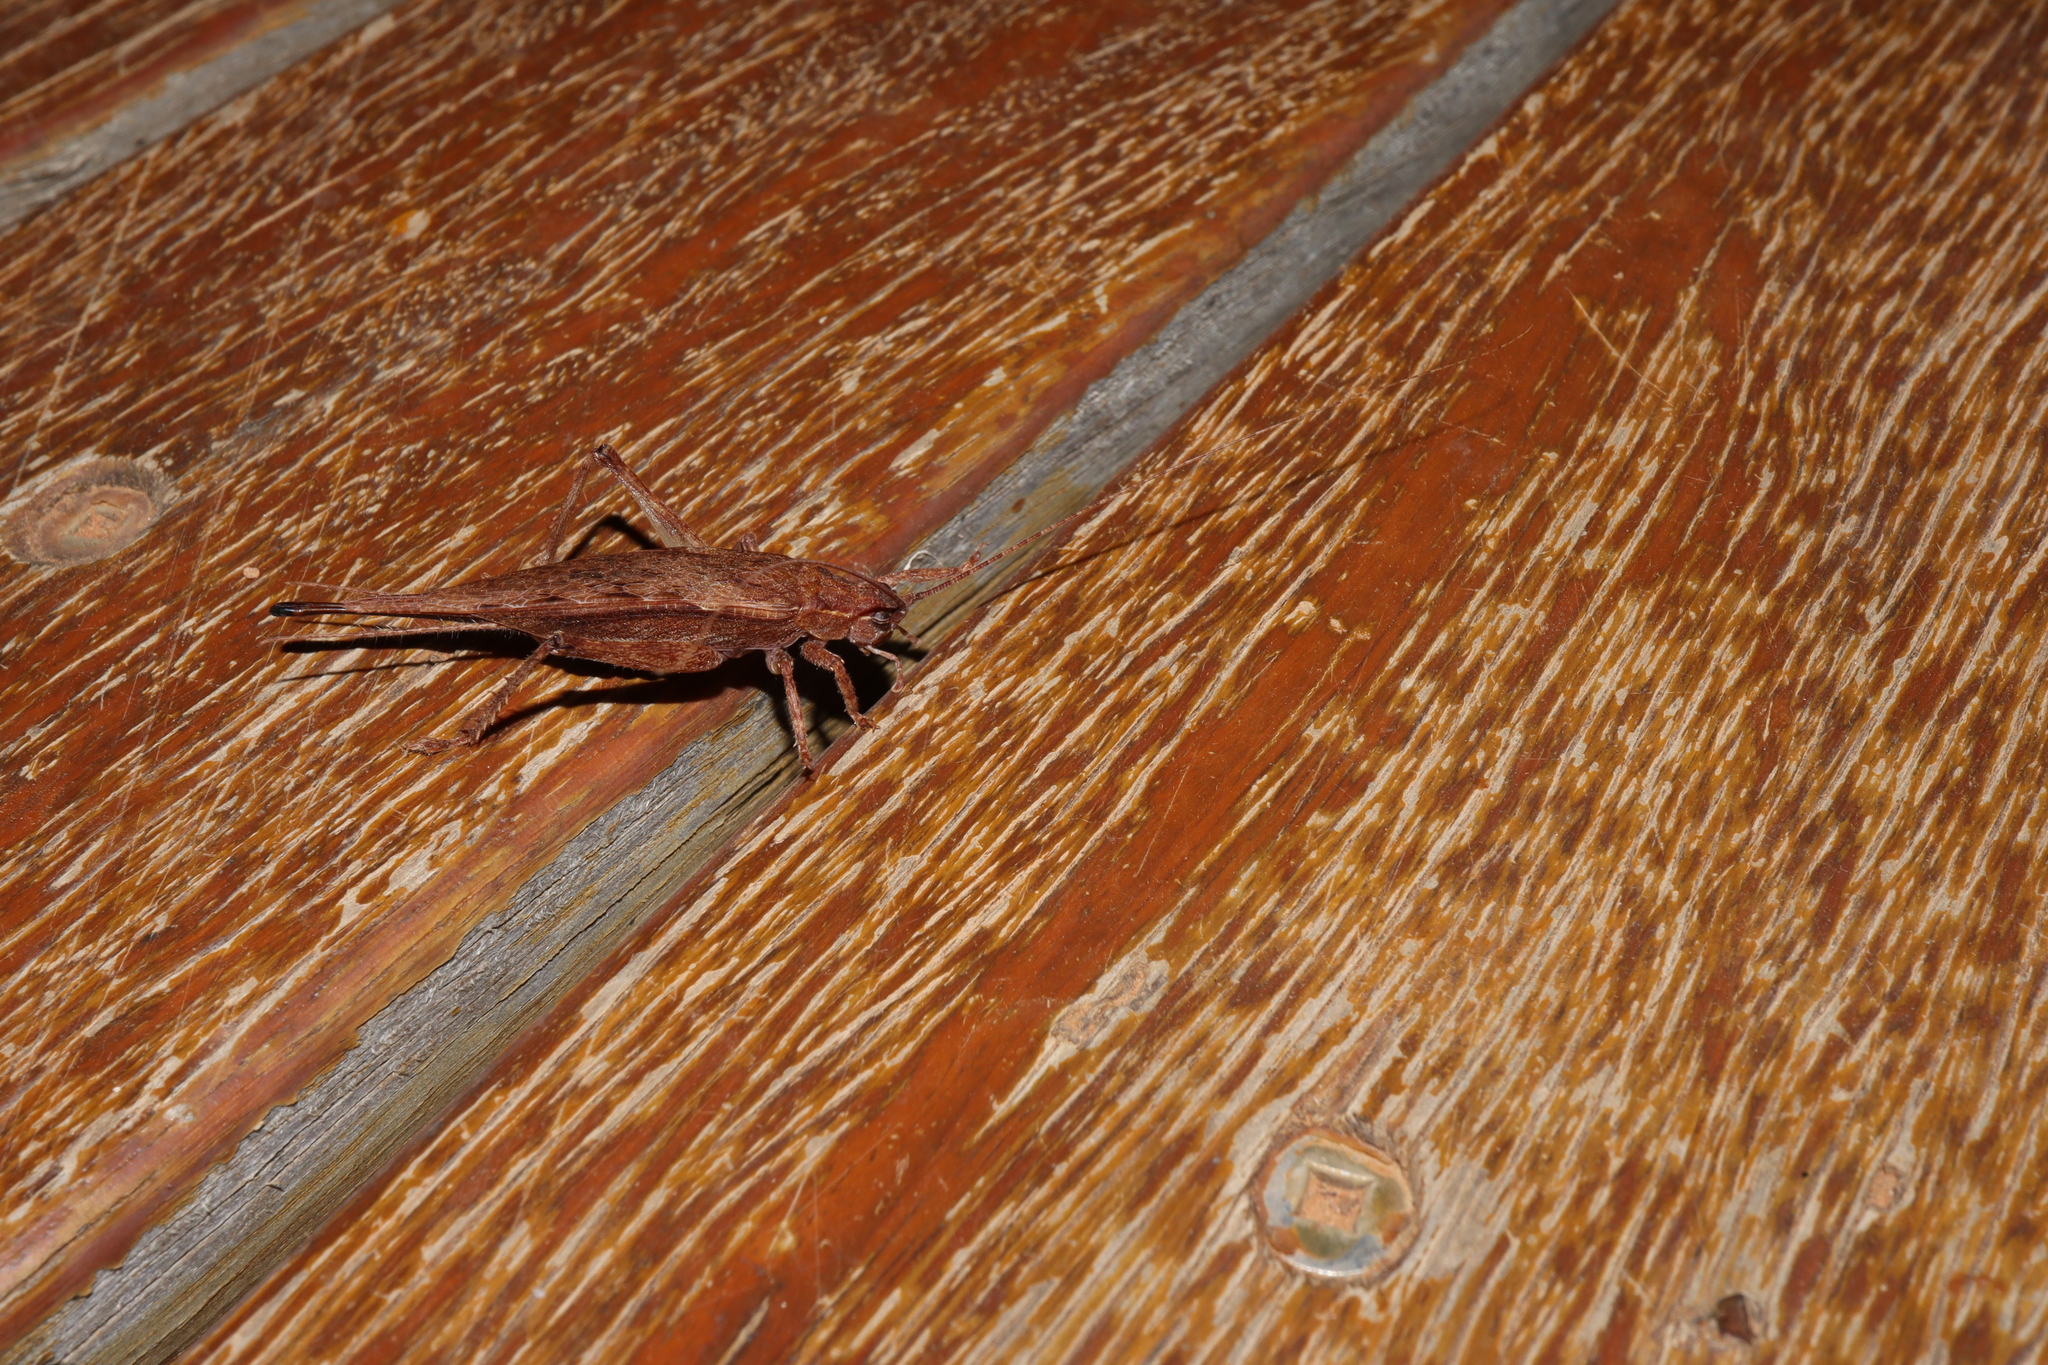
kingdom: Animalia
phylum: Arthropoda
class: Insecta
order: Orthoptera
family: Gryllidae
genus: Hemiphonus
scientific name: Hemiphonus quinnia
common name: Quinnia arboreal cricket
